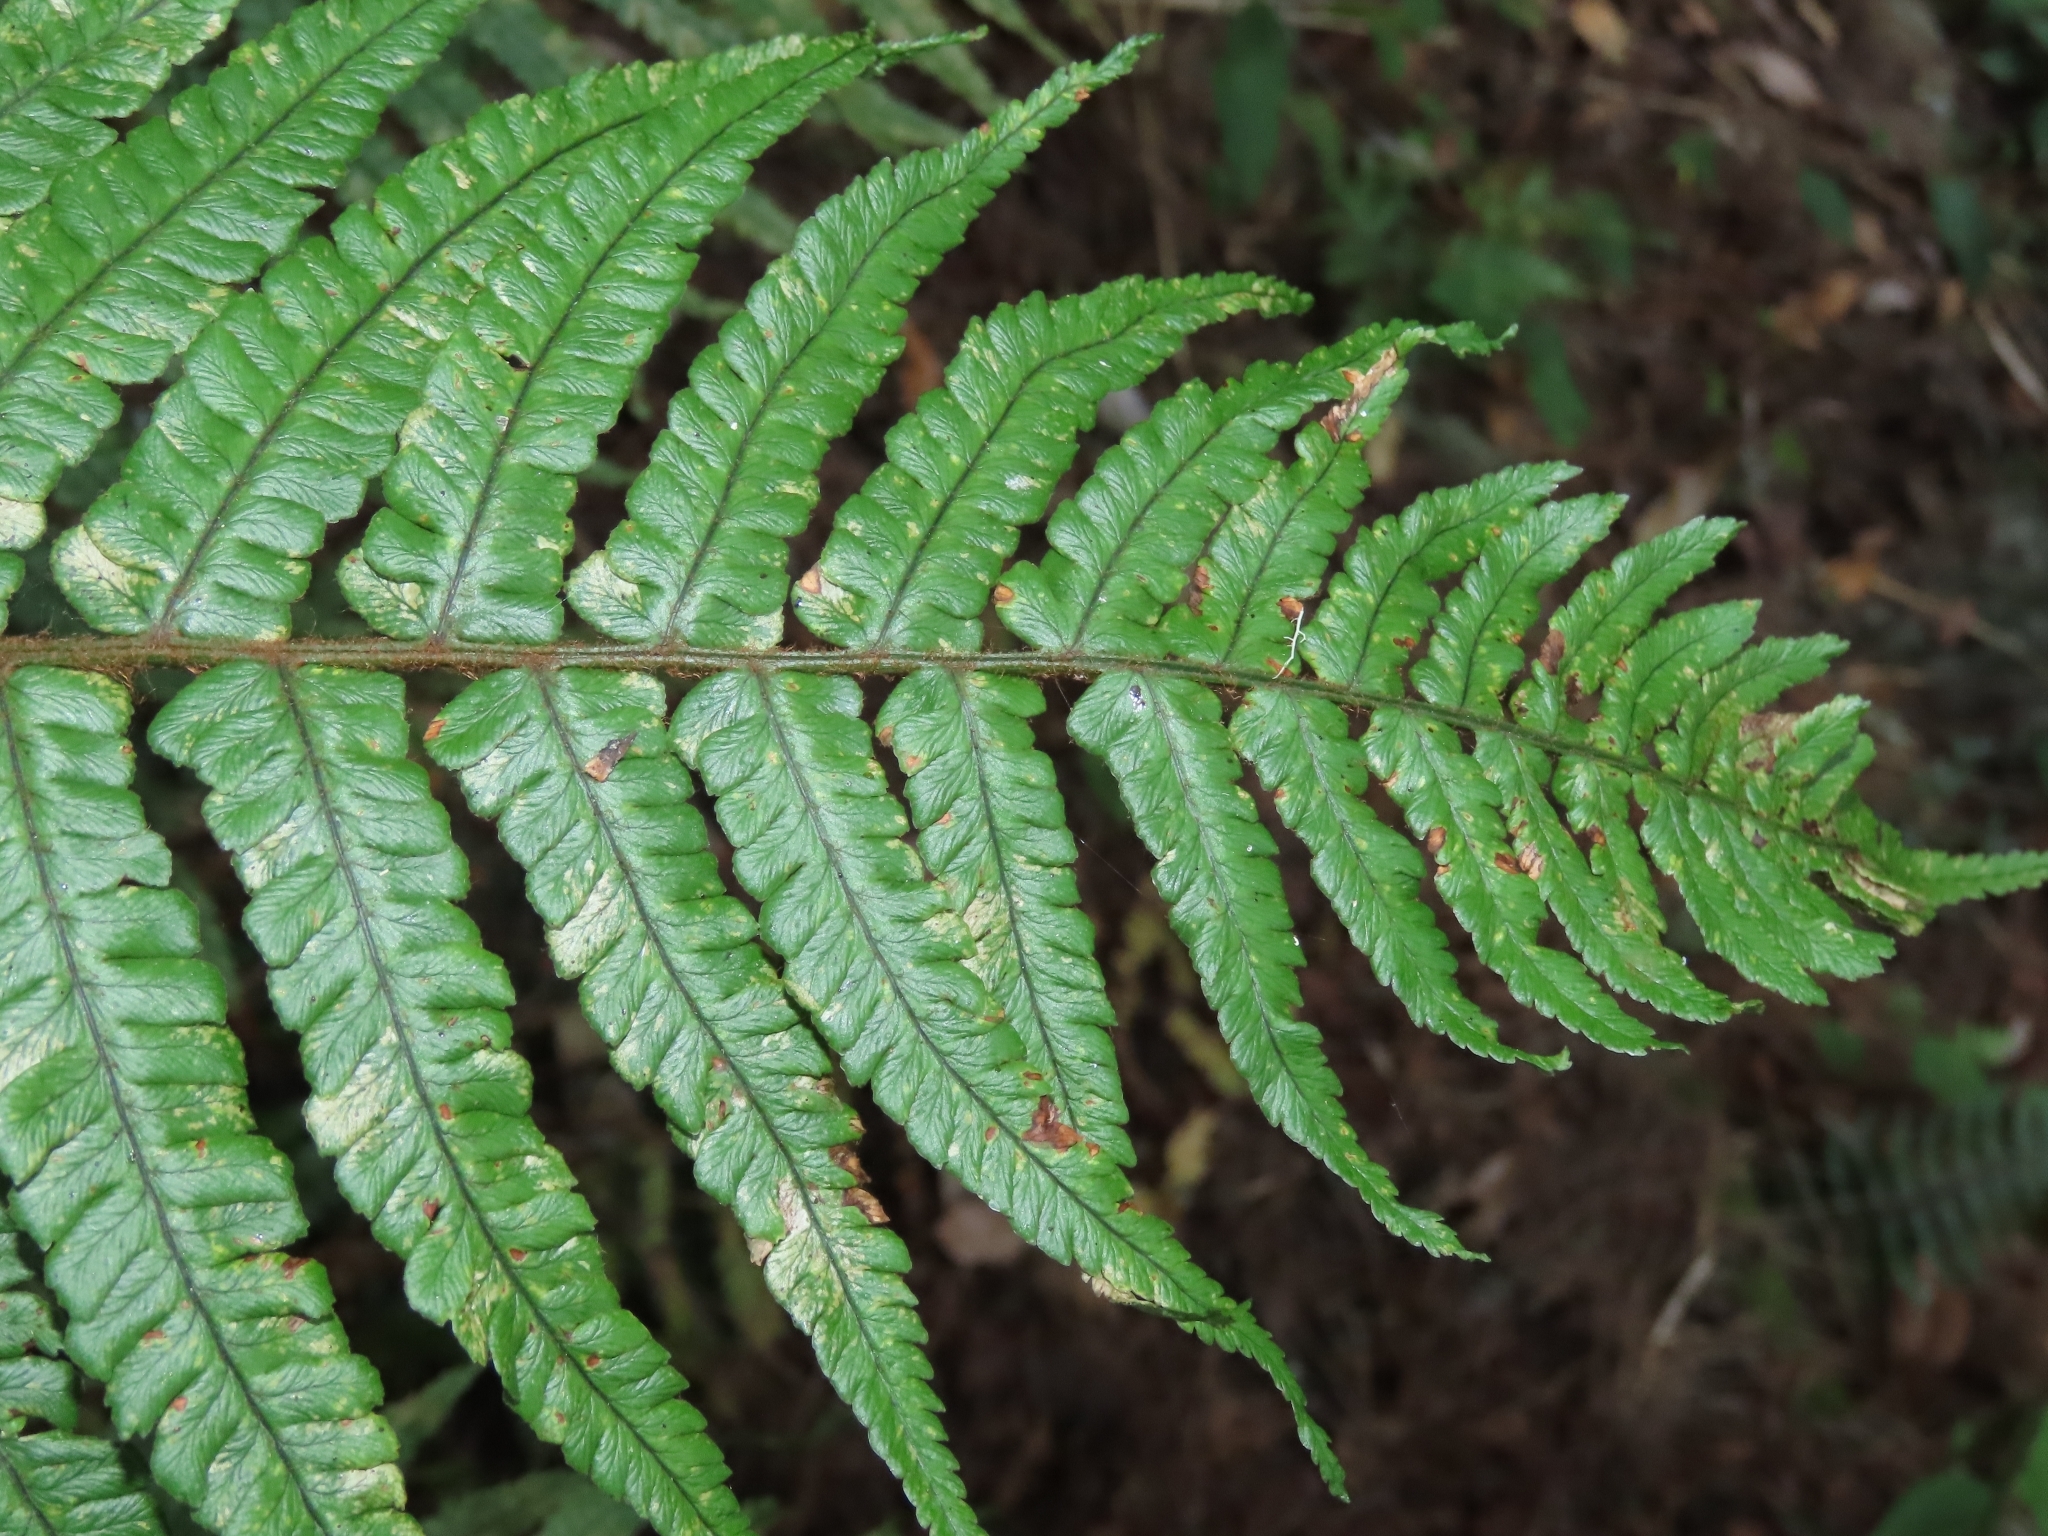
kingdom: Plantae
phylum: Tracheophyta
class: Polypodiopsida
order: Polypodiales
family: Dryopteridaceae
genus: Dryopteris
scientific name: Dryopteris wallichiana
